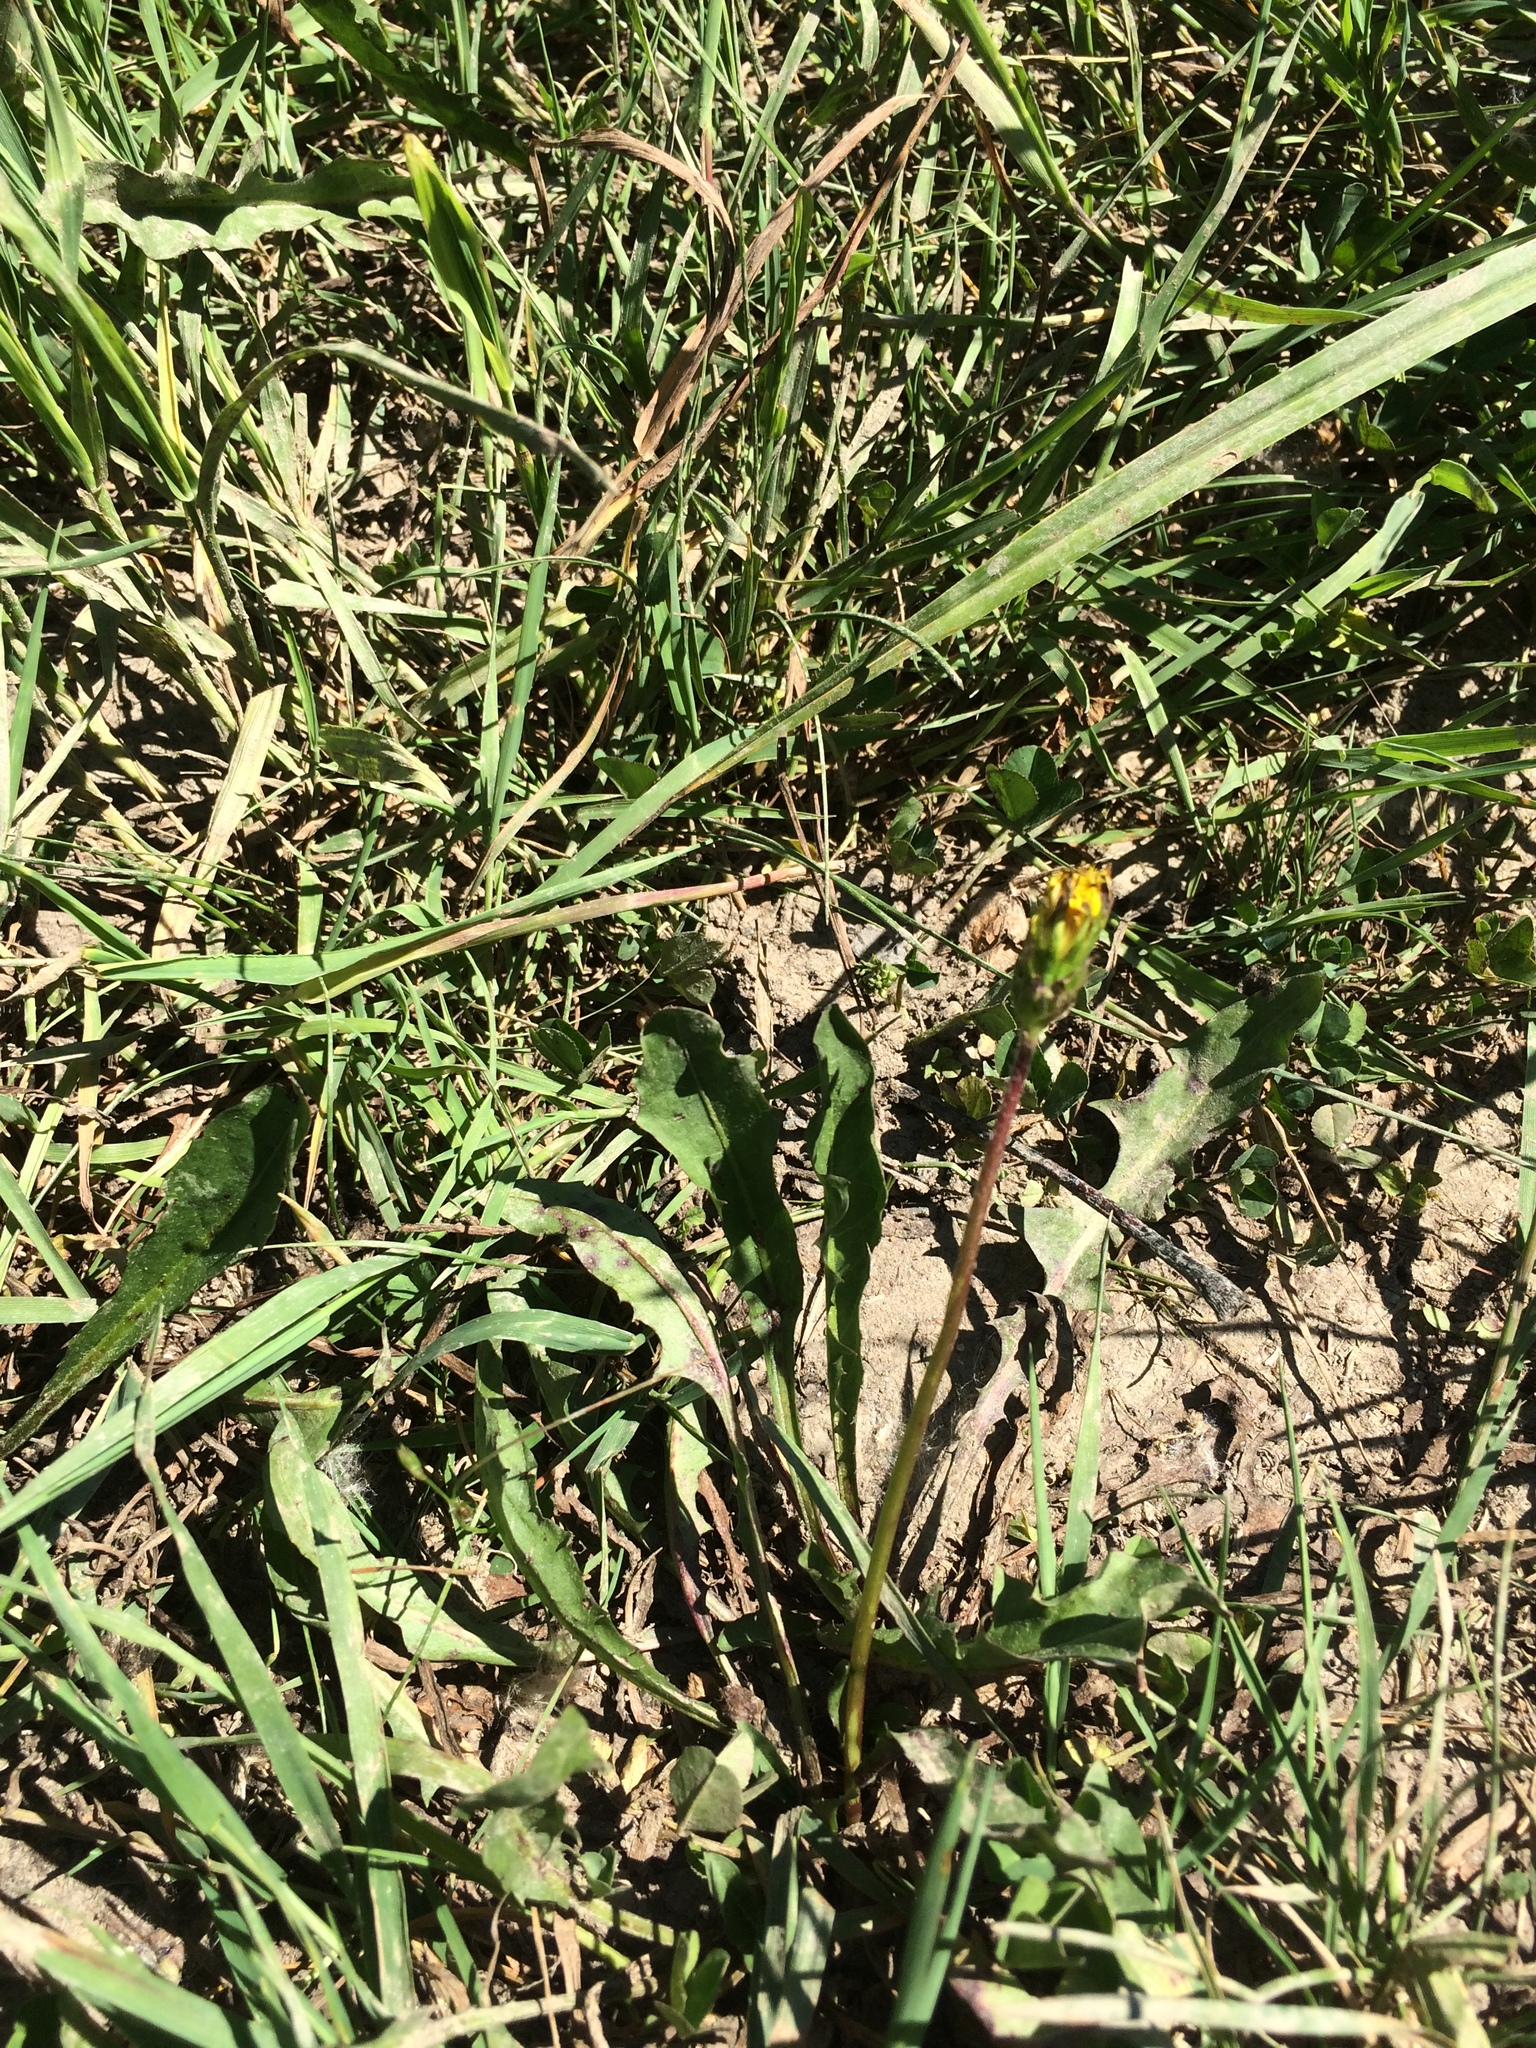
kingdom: Plantae
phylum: Tracheophyta
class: Magnoliopsida
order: Asterales
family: Asteraceae
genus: Taraxacum
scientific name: Taraxacum palustre
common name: Marsh dandelion
